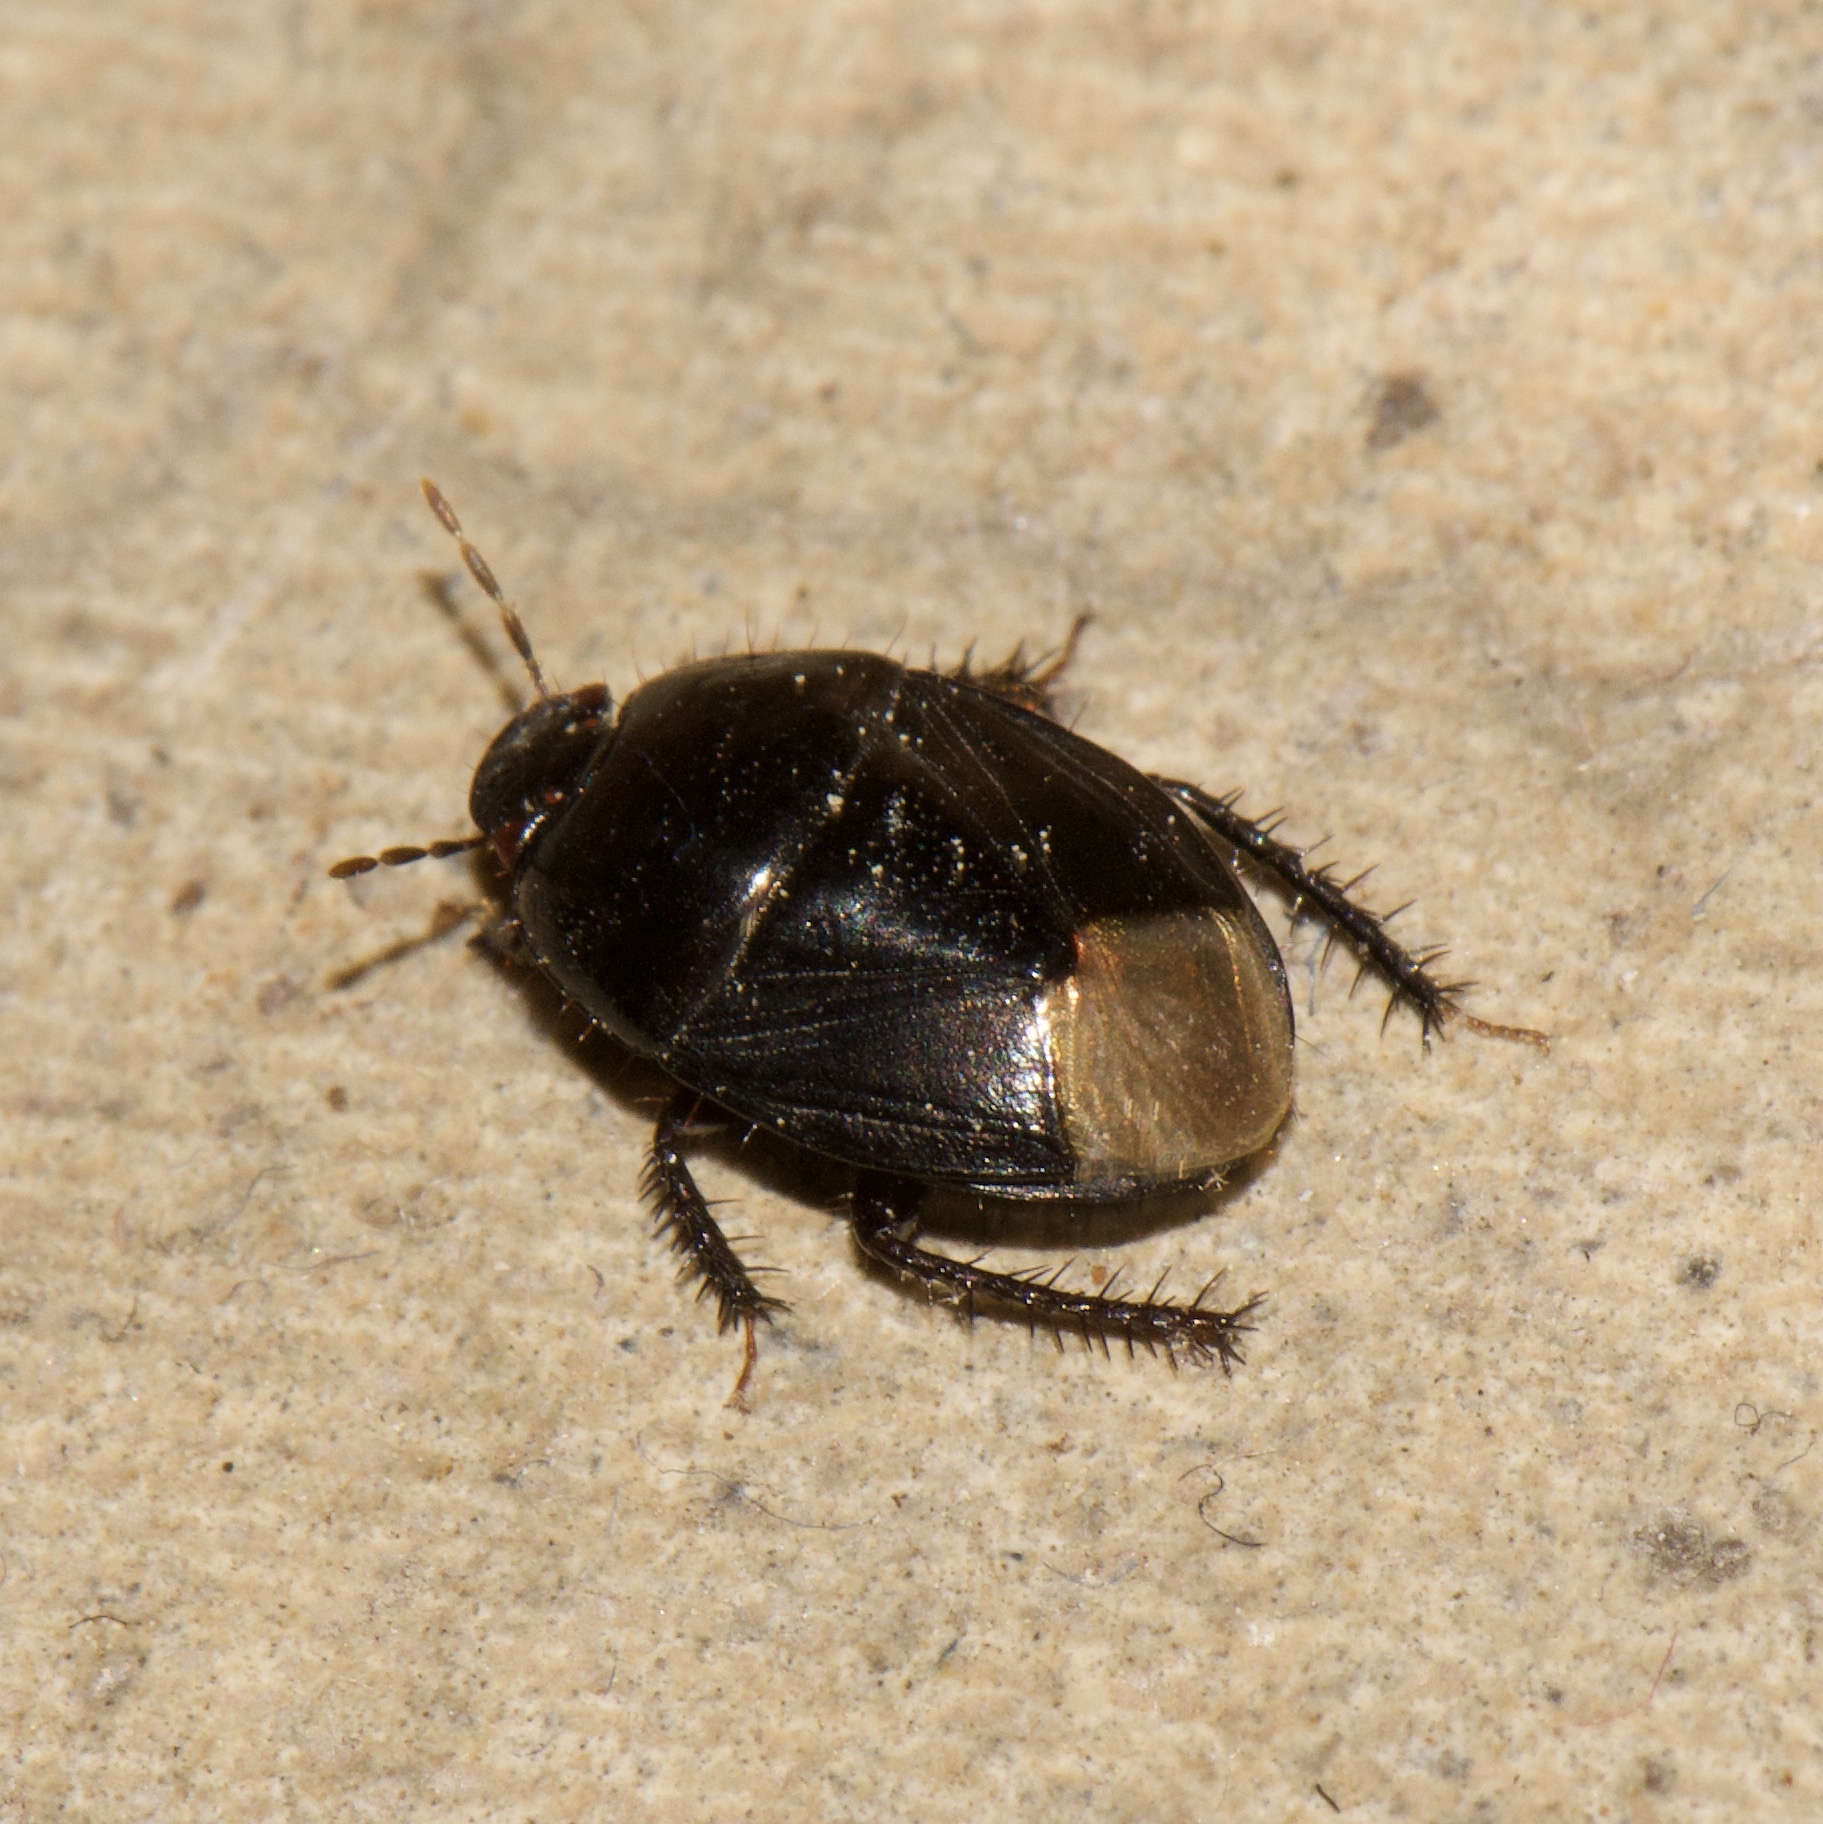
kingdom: Animalia
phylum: Arthropoda
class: Insecta
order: Hemiptera
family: Cydnidae
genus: Pangaeus
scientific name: Pangaeus bilineatus
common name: Burrower bug
